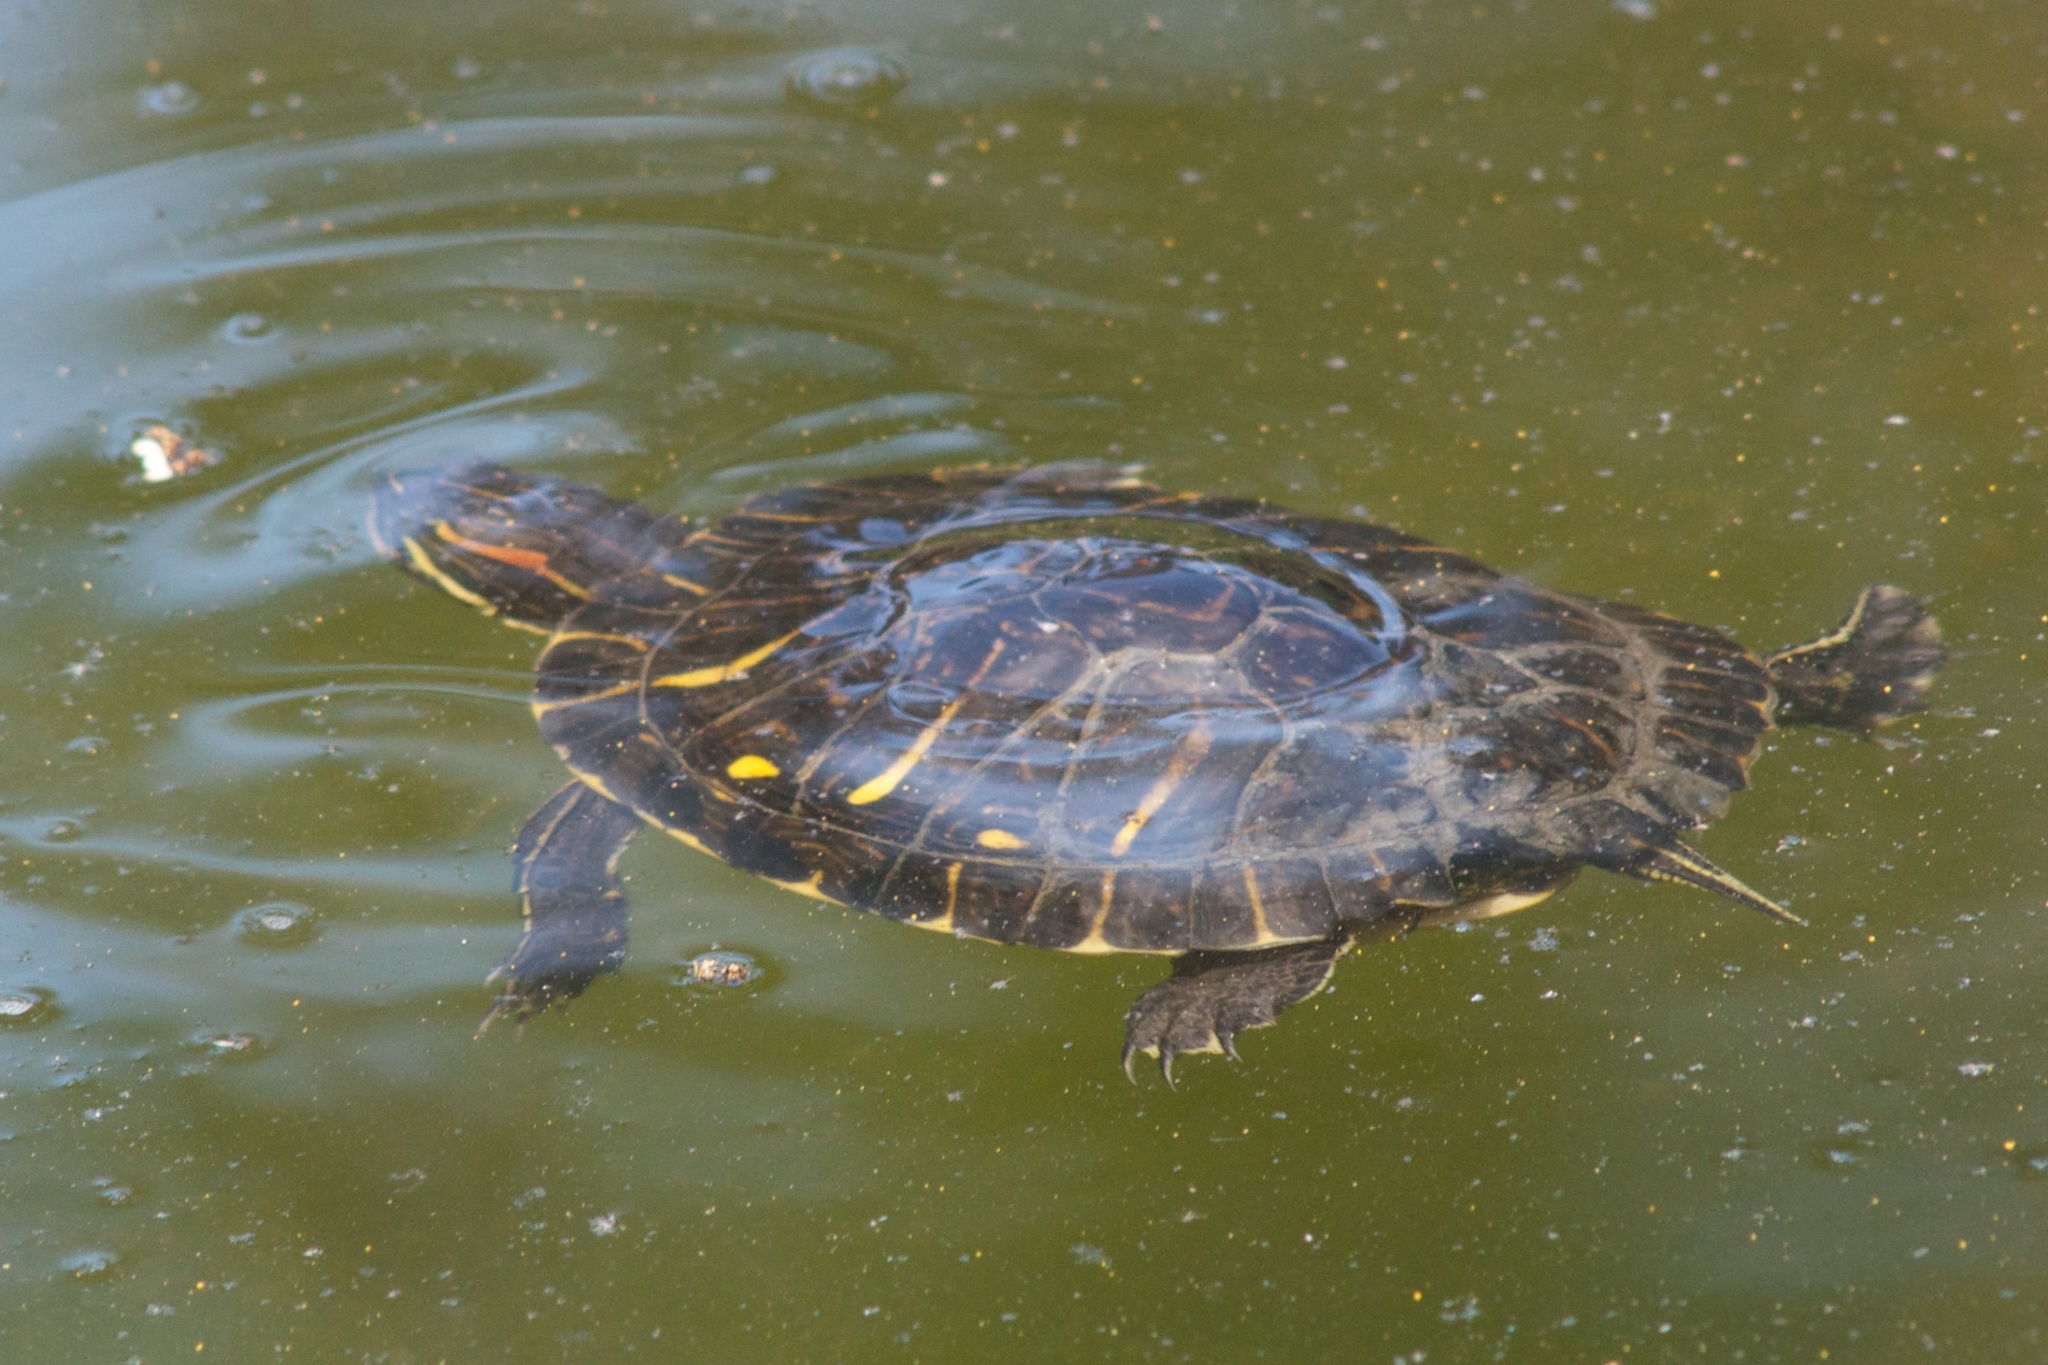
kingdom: Animalia
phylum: Chordata
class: Testudines
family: Emydidae
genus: Trachemys
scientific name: Trachemys scripta
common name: Slider
